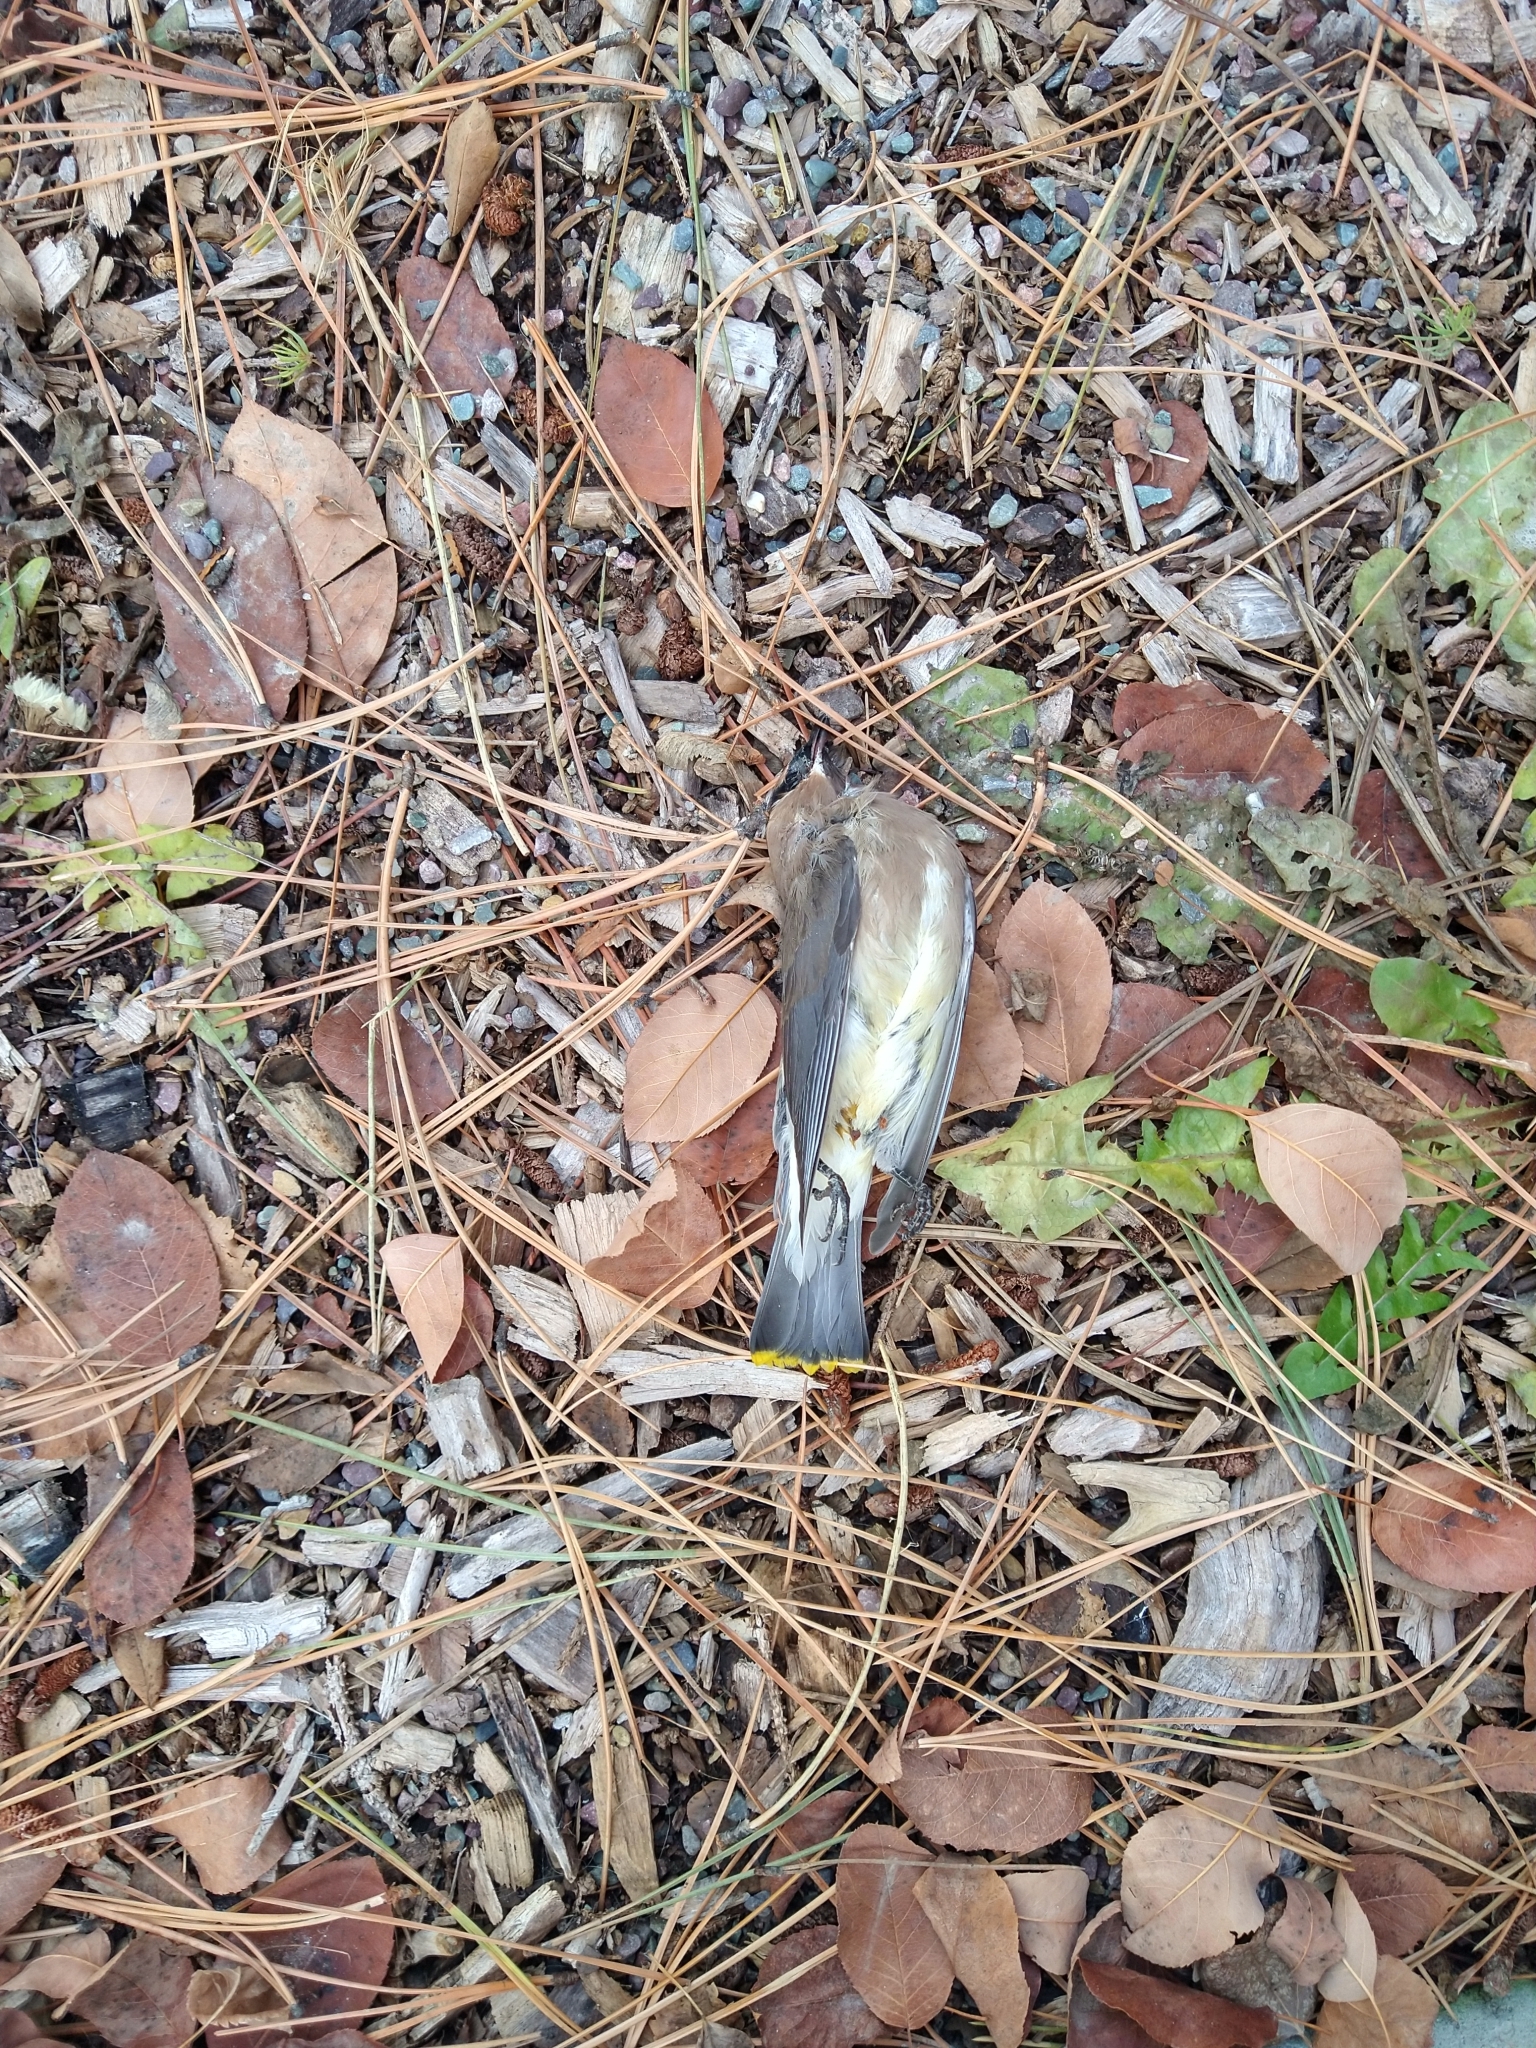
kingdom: Animalia
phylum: Chordata
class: Aves
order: Passeriformes
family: Bombycillidae
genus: Bombycilla
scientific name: Bombycilla cedrorum
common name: Cedar waxwing
